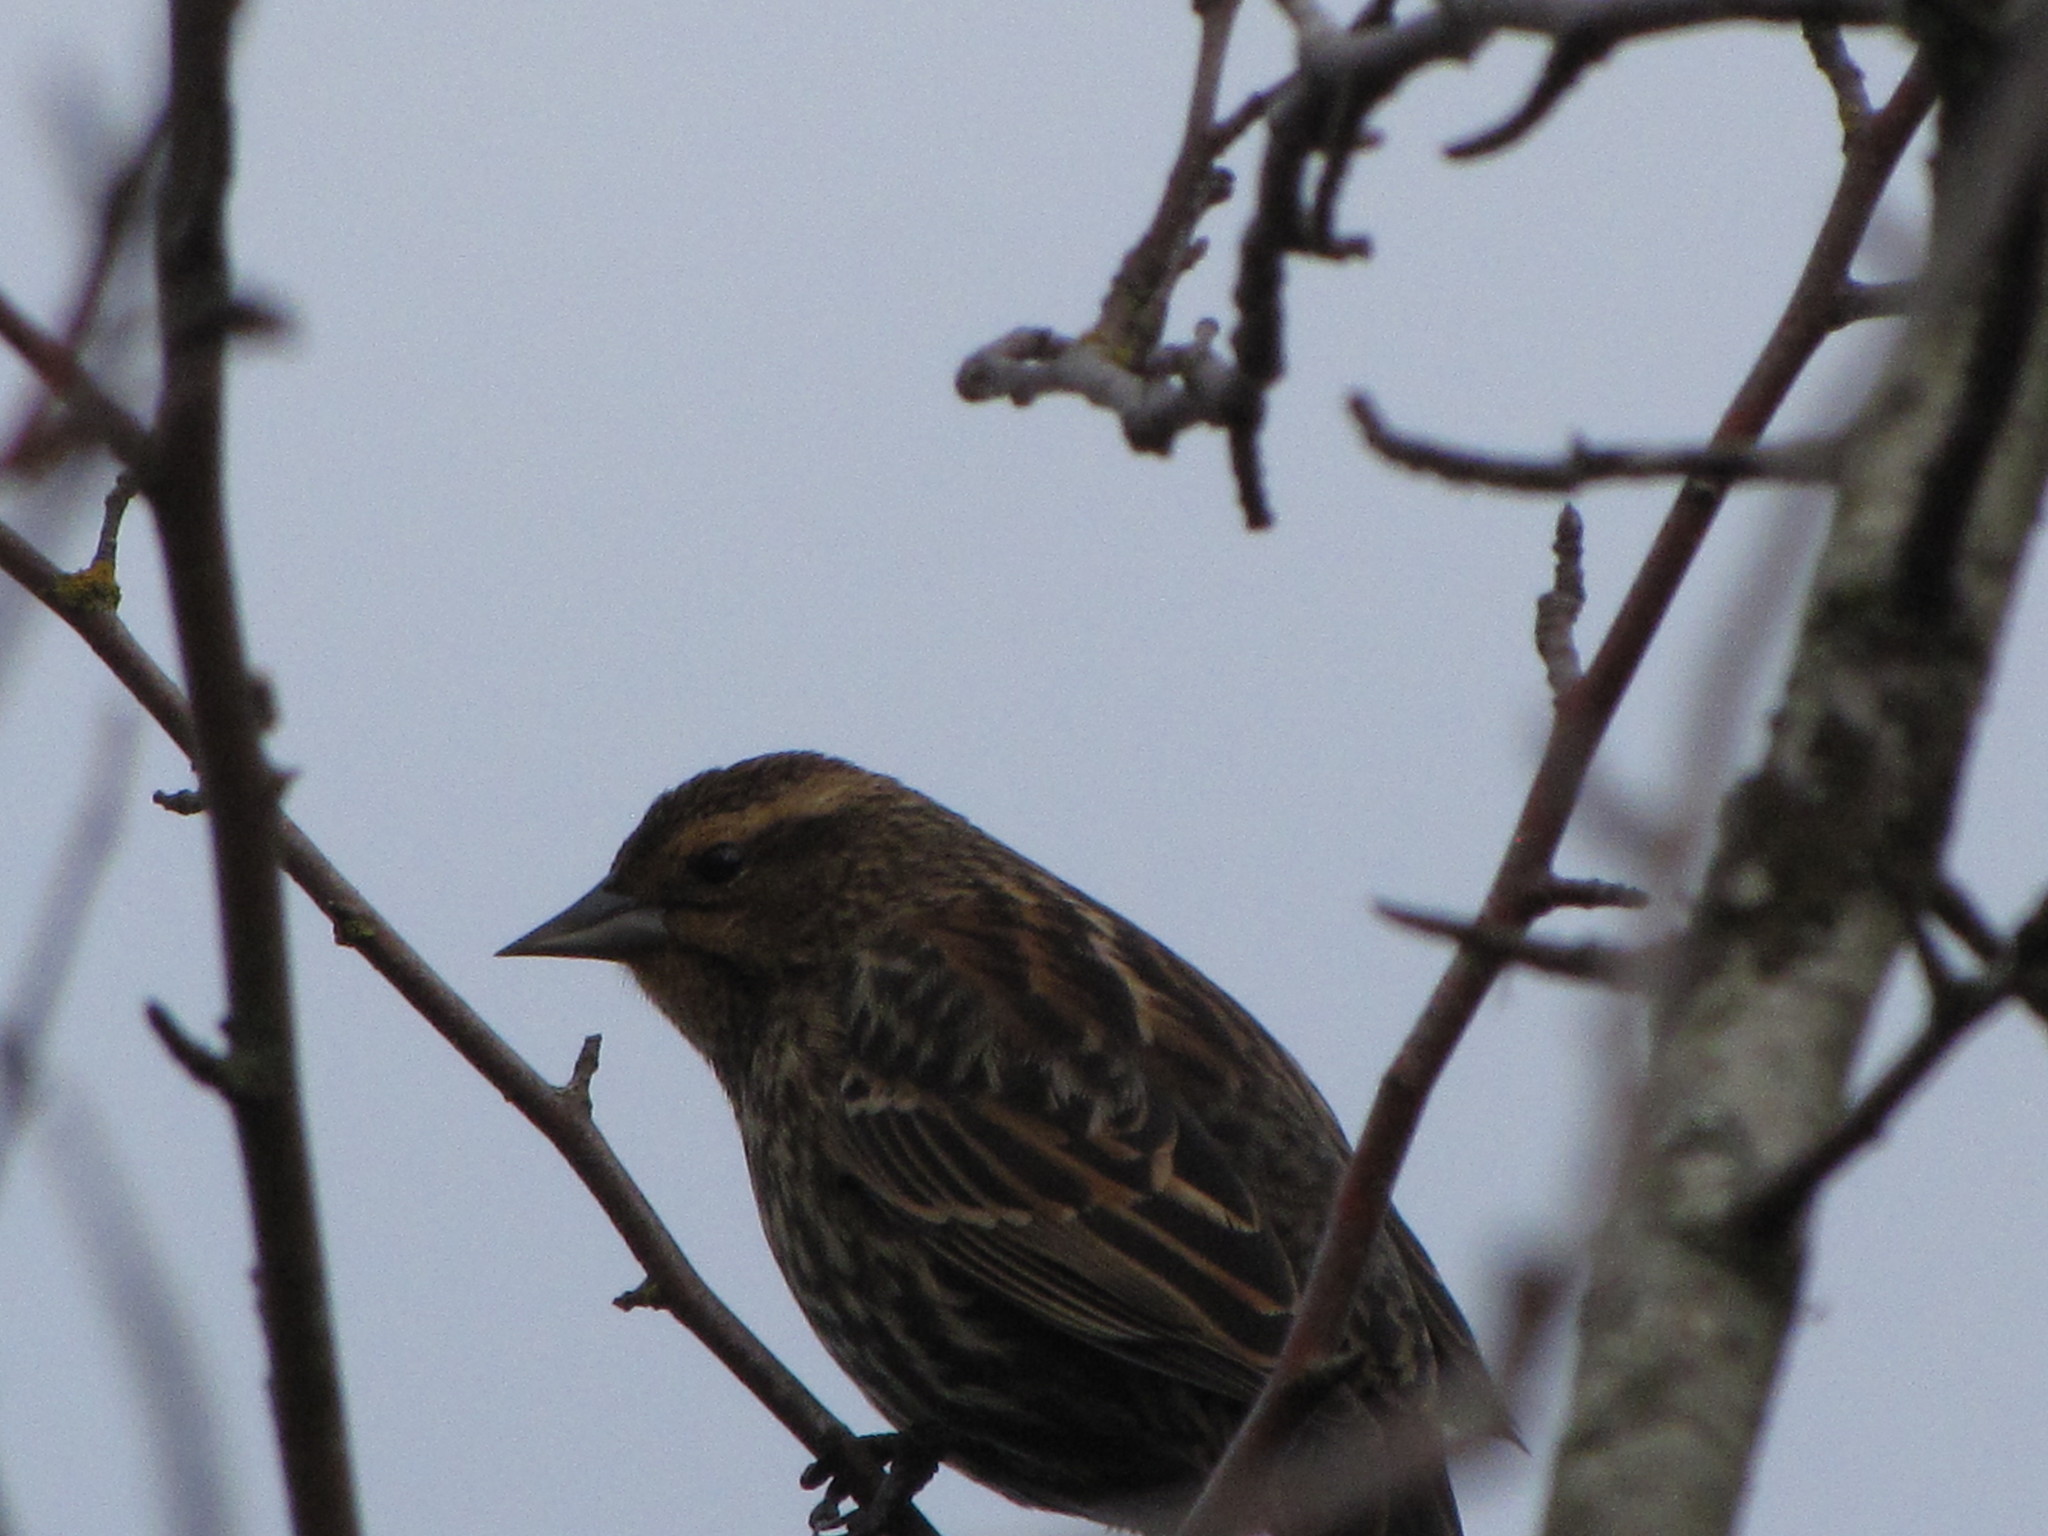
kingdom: Animalia
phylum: Chordata
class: Aves
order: Passeriformes
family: Icteridae
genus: Agelaius
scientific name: Agelaius phoeniceus
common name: Red-winged blackbird
